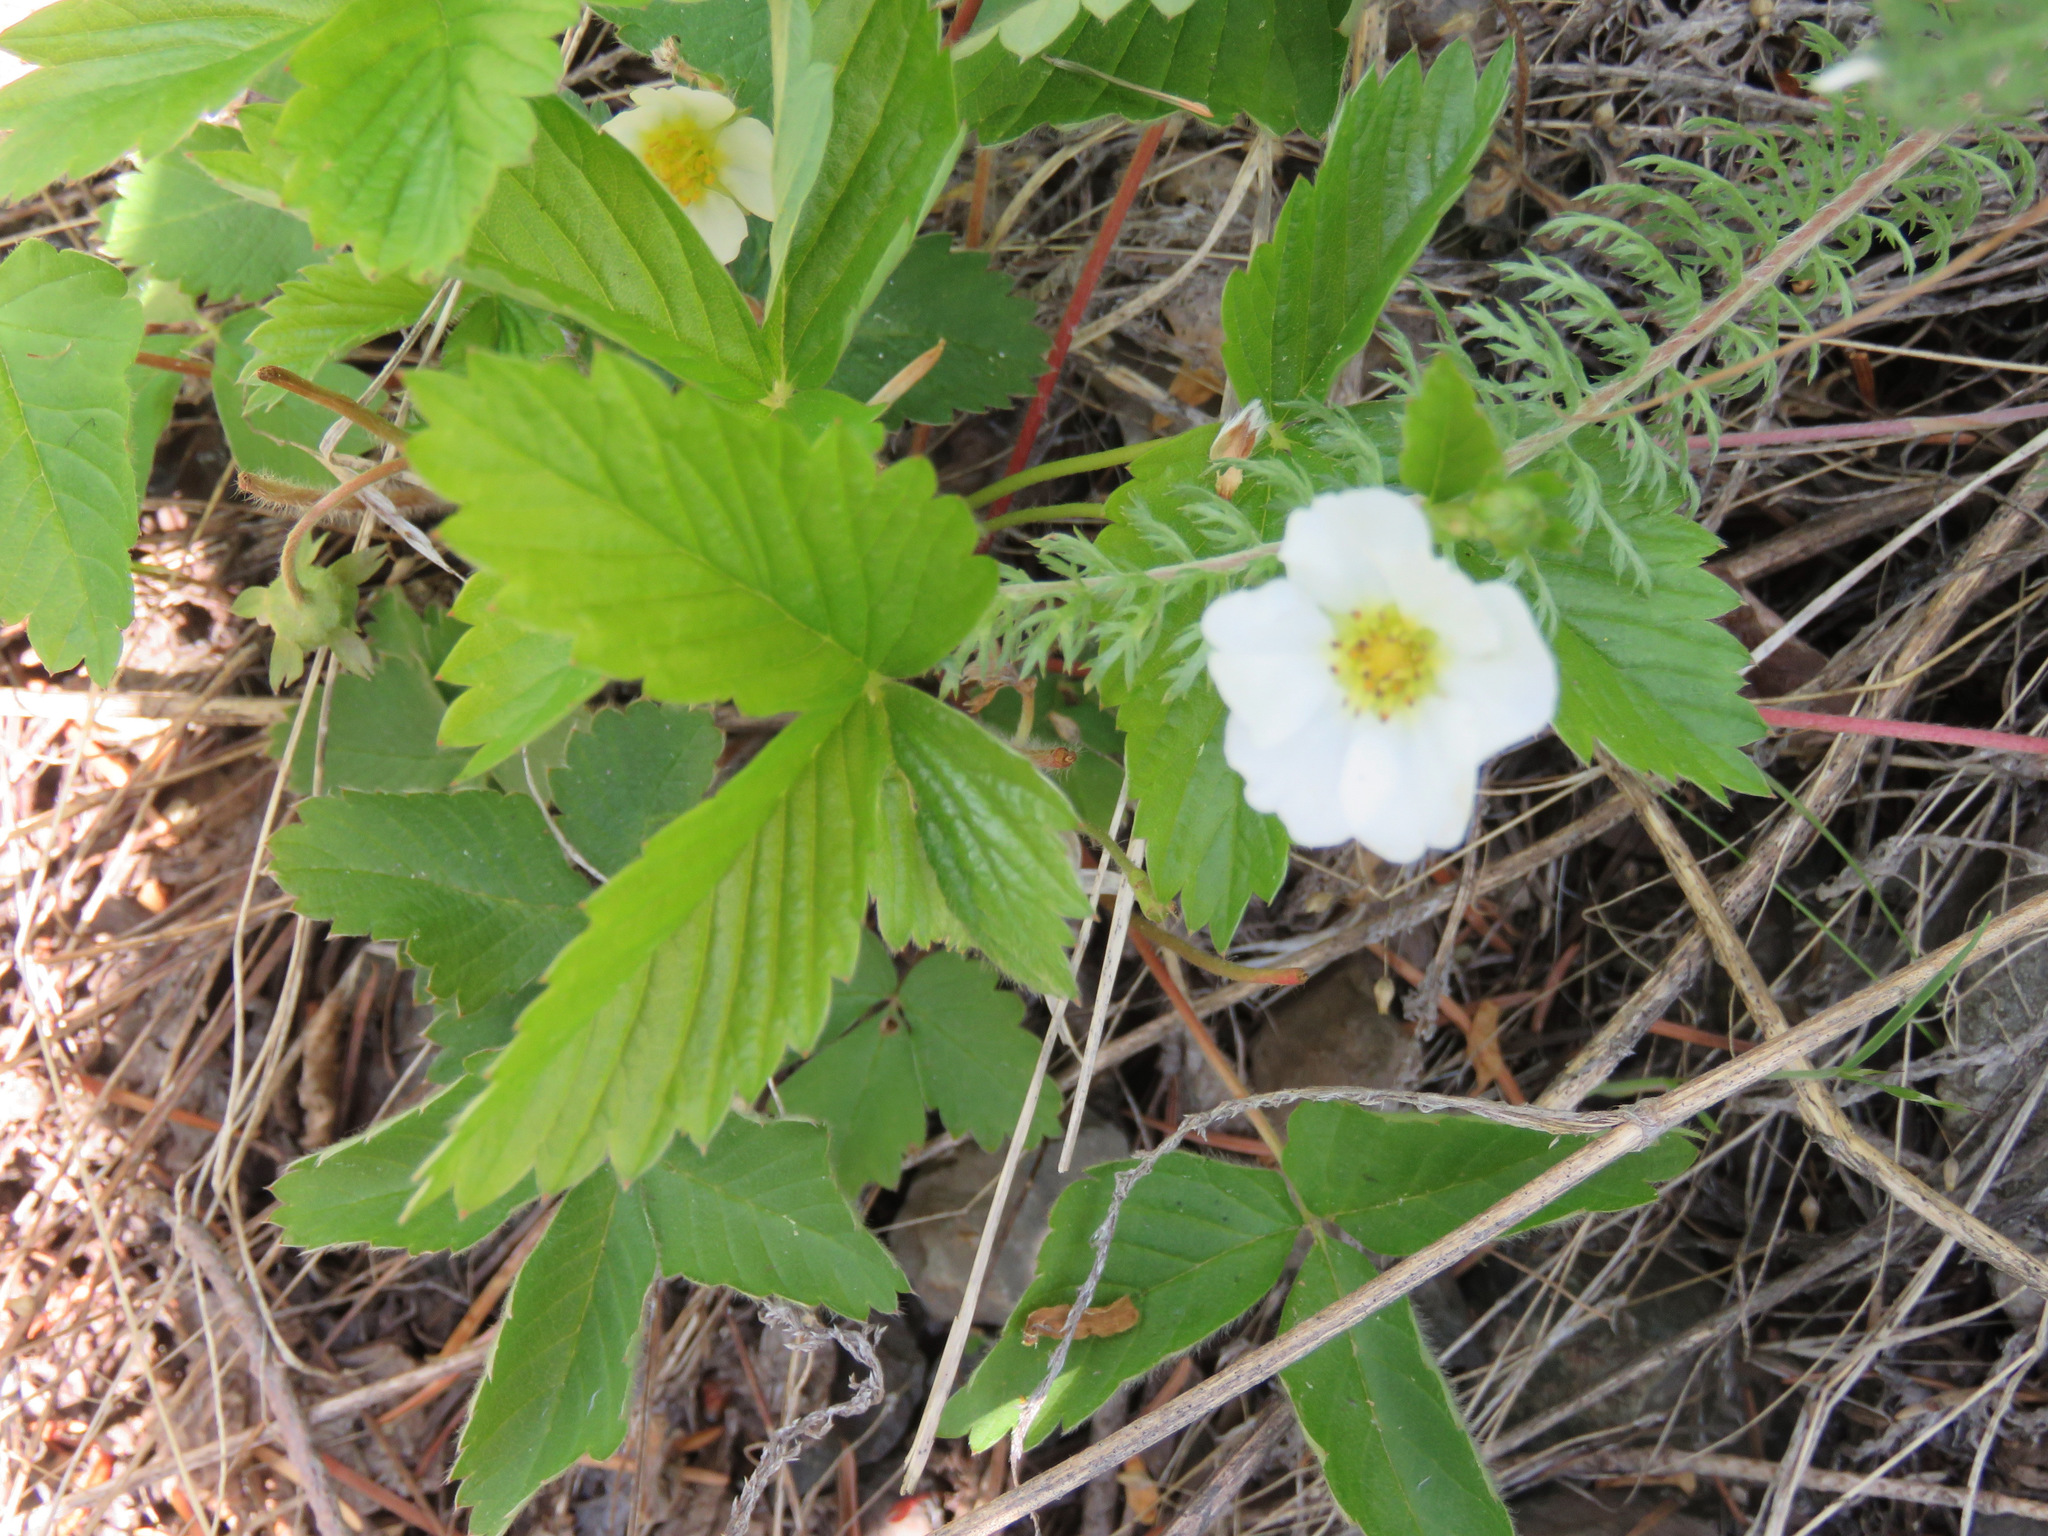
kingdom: Plantae
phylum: Tracheophyta
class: Magnoliopsida
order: Rosales
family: Rosaceae
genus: Fragaria
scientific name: Fragaria vesca
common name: Wild strawberry
